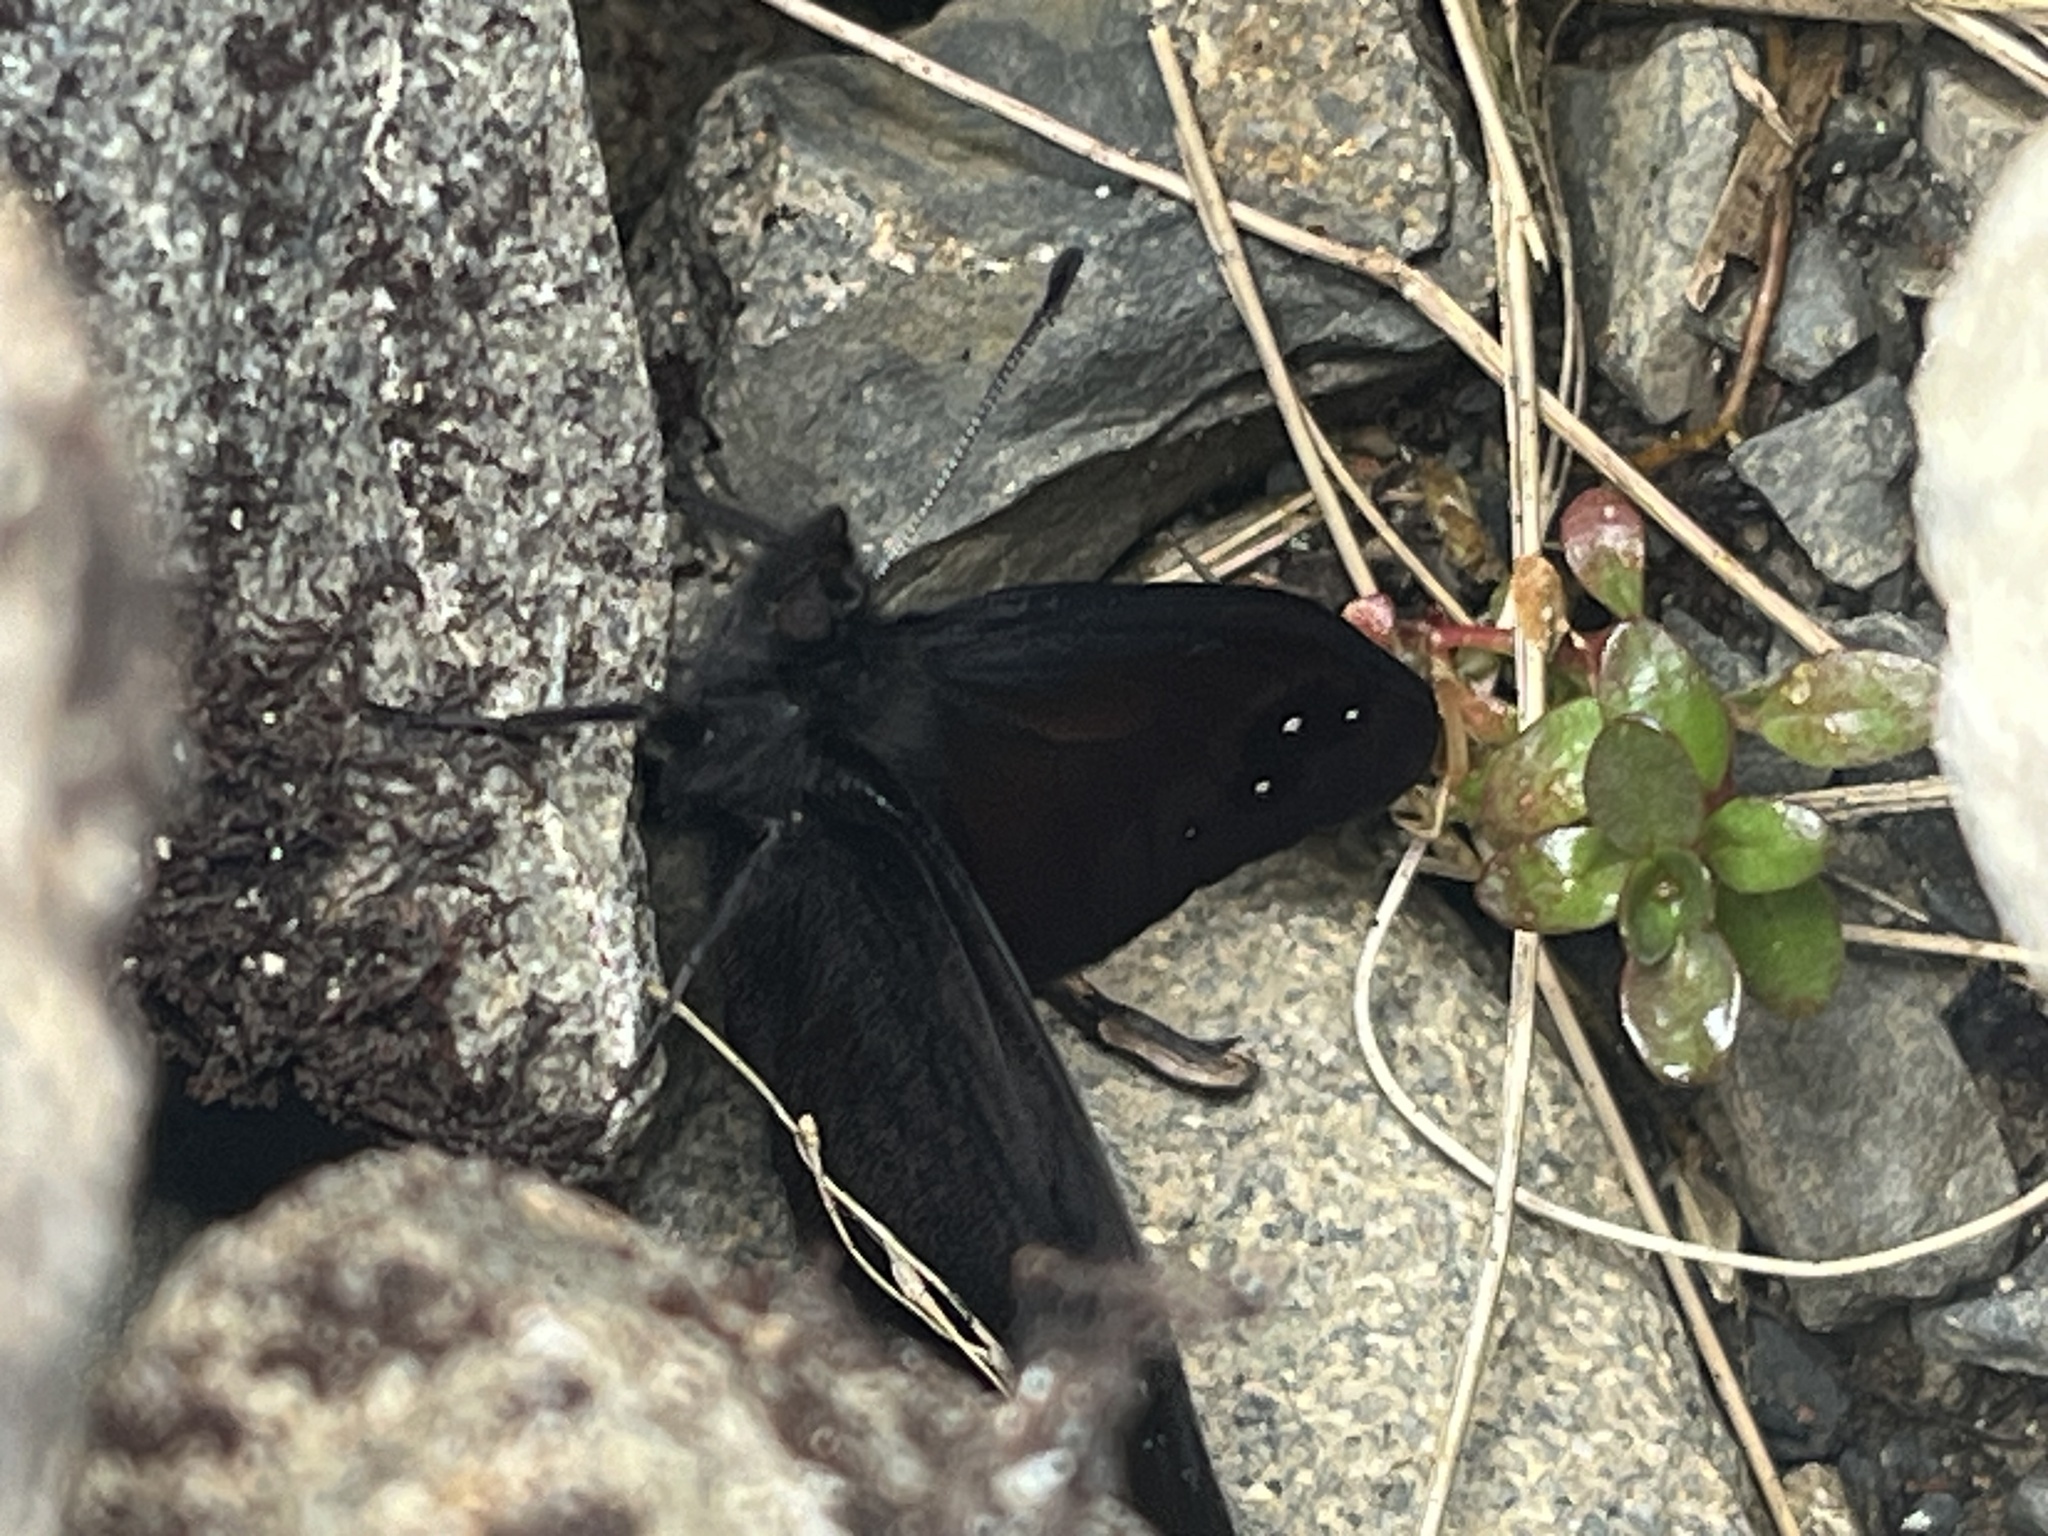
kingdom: Animalia
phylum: Arthropoda
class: Insecta
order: Lepidoptera
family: Nymphalidae
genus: Erebia
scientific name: Erebia Percnodaimon merula
